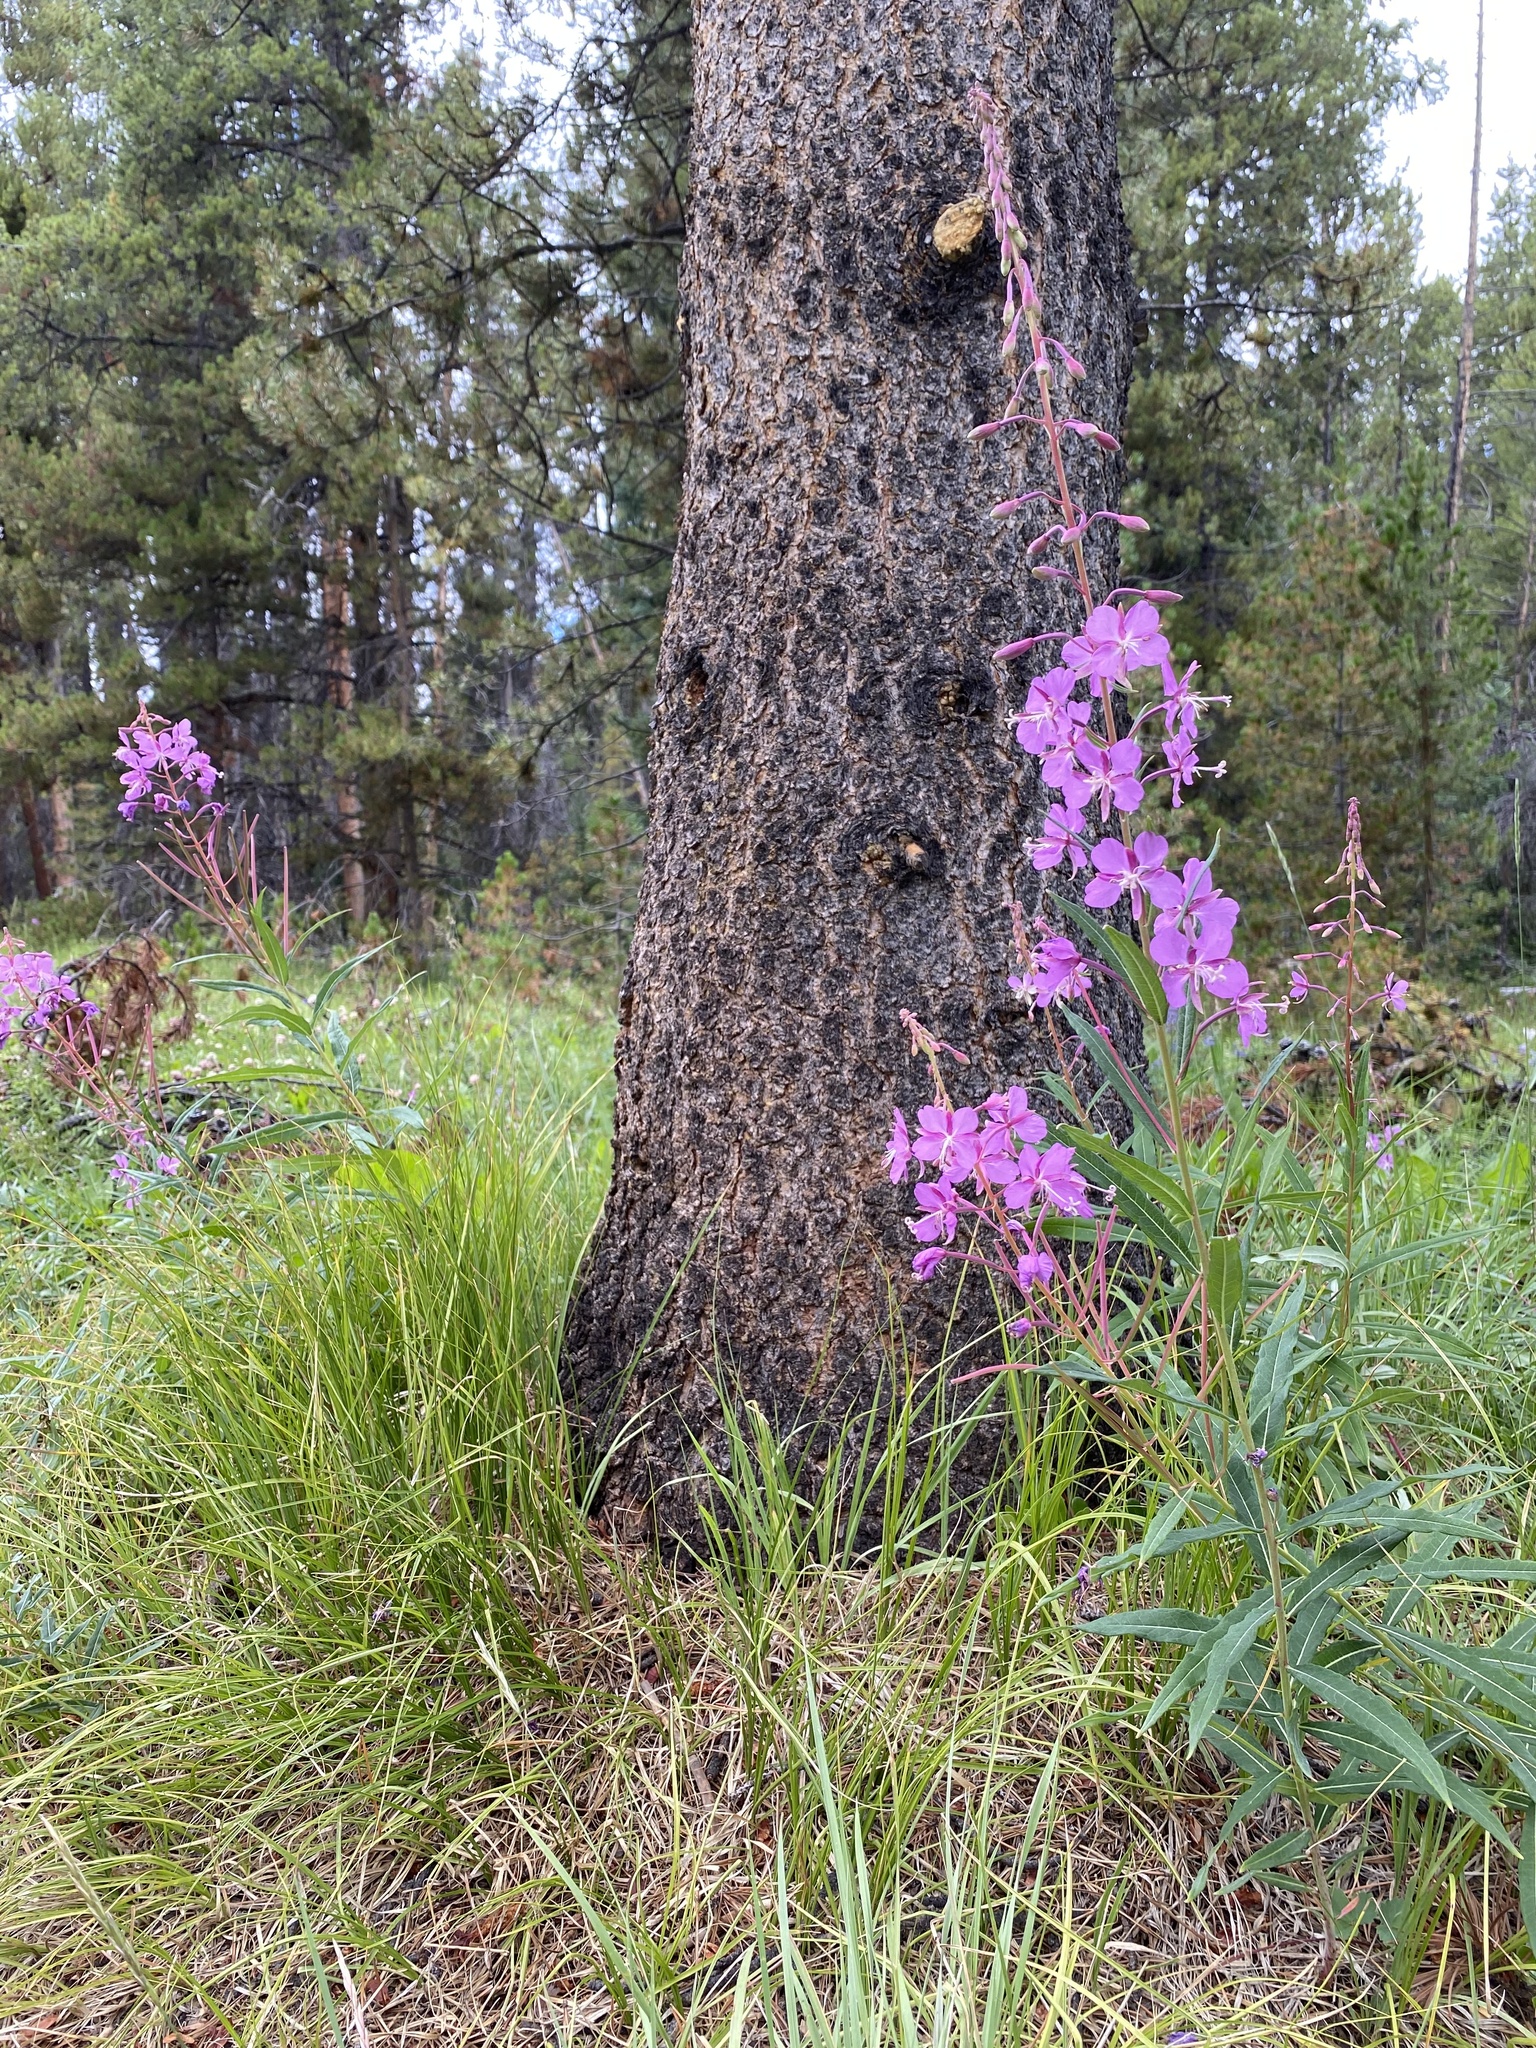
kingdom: Plantae
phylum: Tracheophyta
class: Magnoliopsida
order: Myrtales
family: Onagraceae
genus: Chamaenerion
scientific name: Chamaenerion angustifolium
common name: Fireweed
